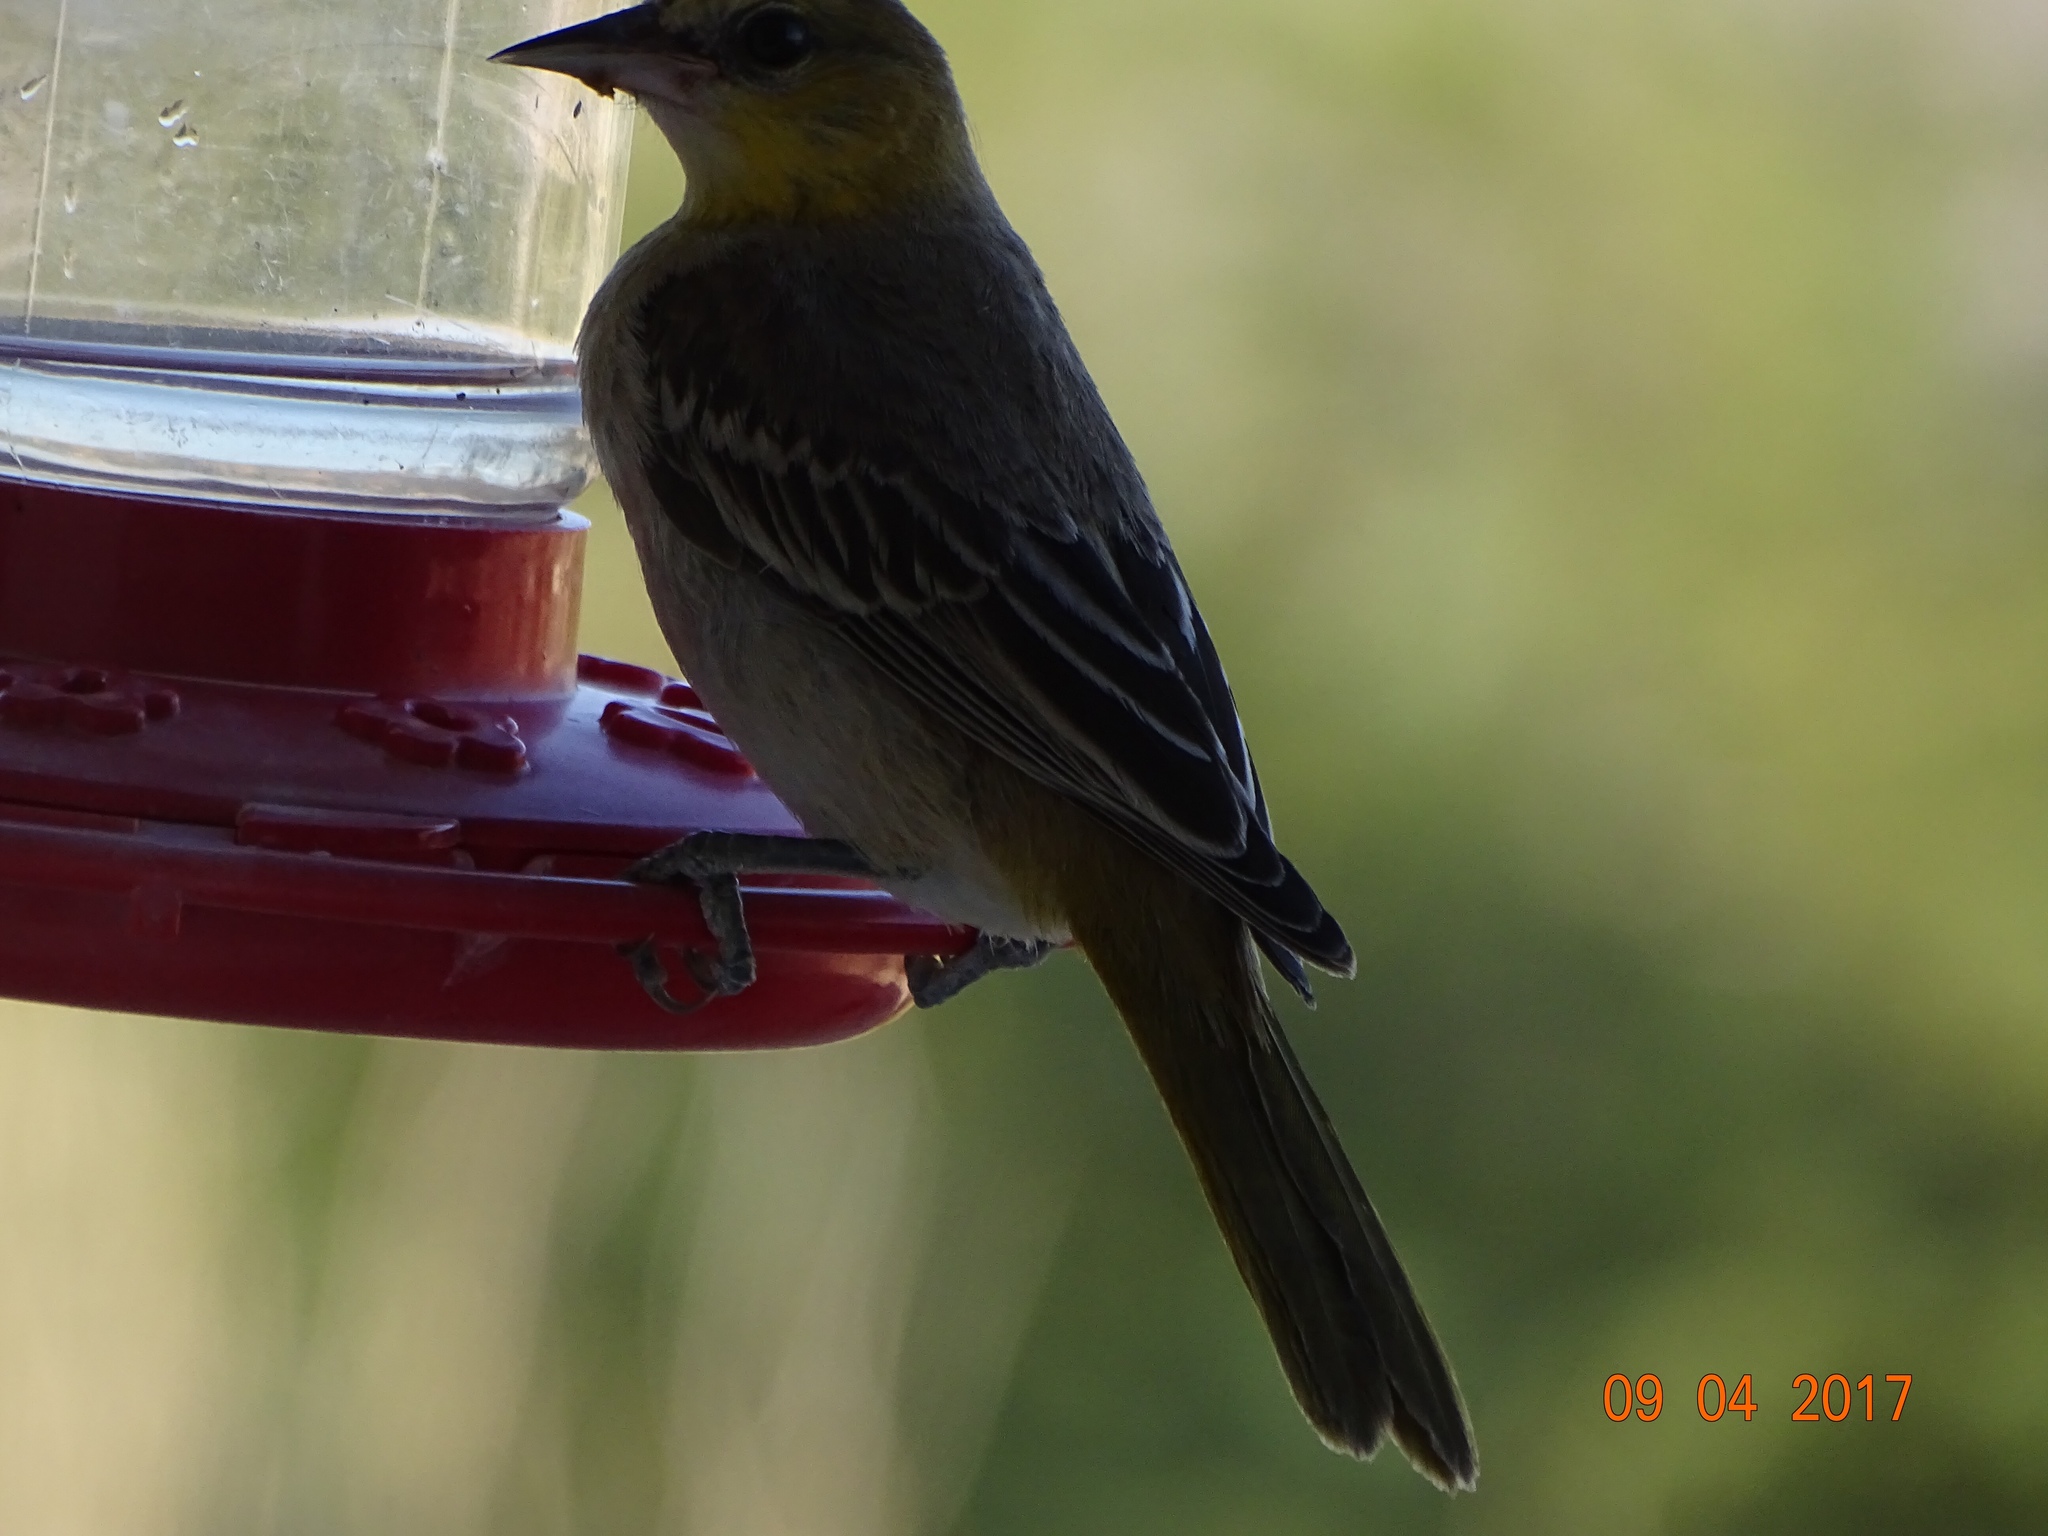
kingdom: Animalia
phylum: Chordata
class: Aves
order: Passeriformes
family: Icteridae
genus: Icterus
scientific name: Icterus bullockii
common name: Bullock's oriole
